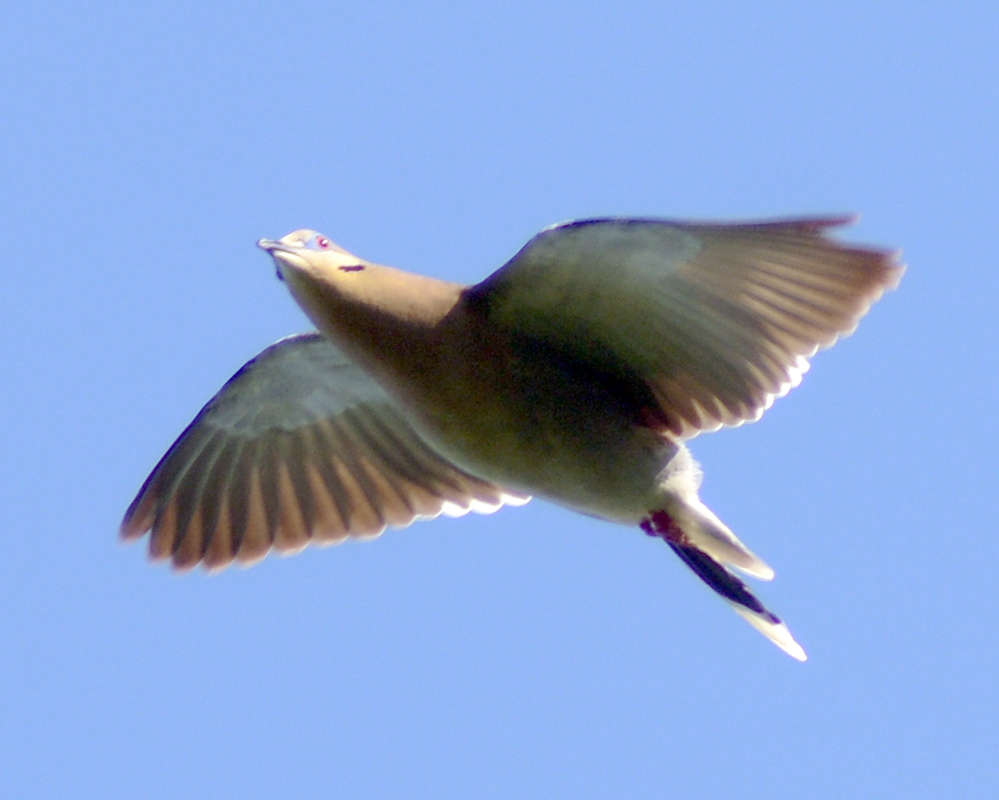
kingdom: Animalia
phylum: Chordata
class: Aves
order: Columbiformes
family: Columbidae
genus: Zenaida
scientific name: Zenaida asiatica
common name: White-winged dove
